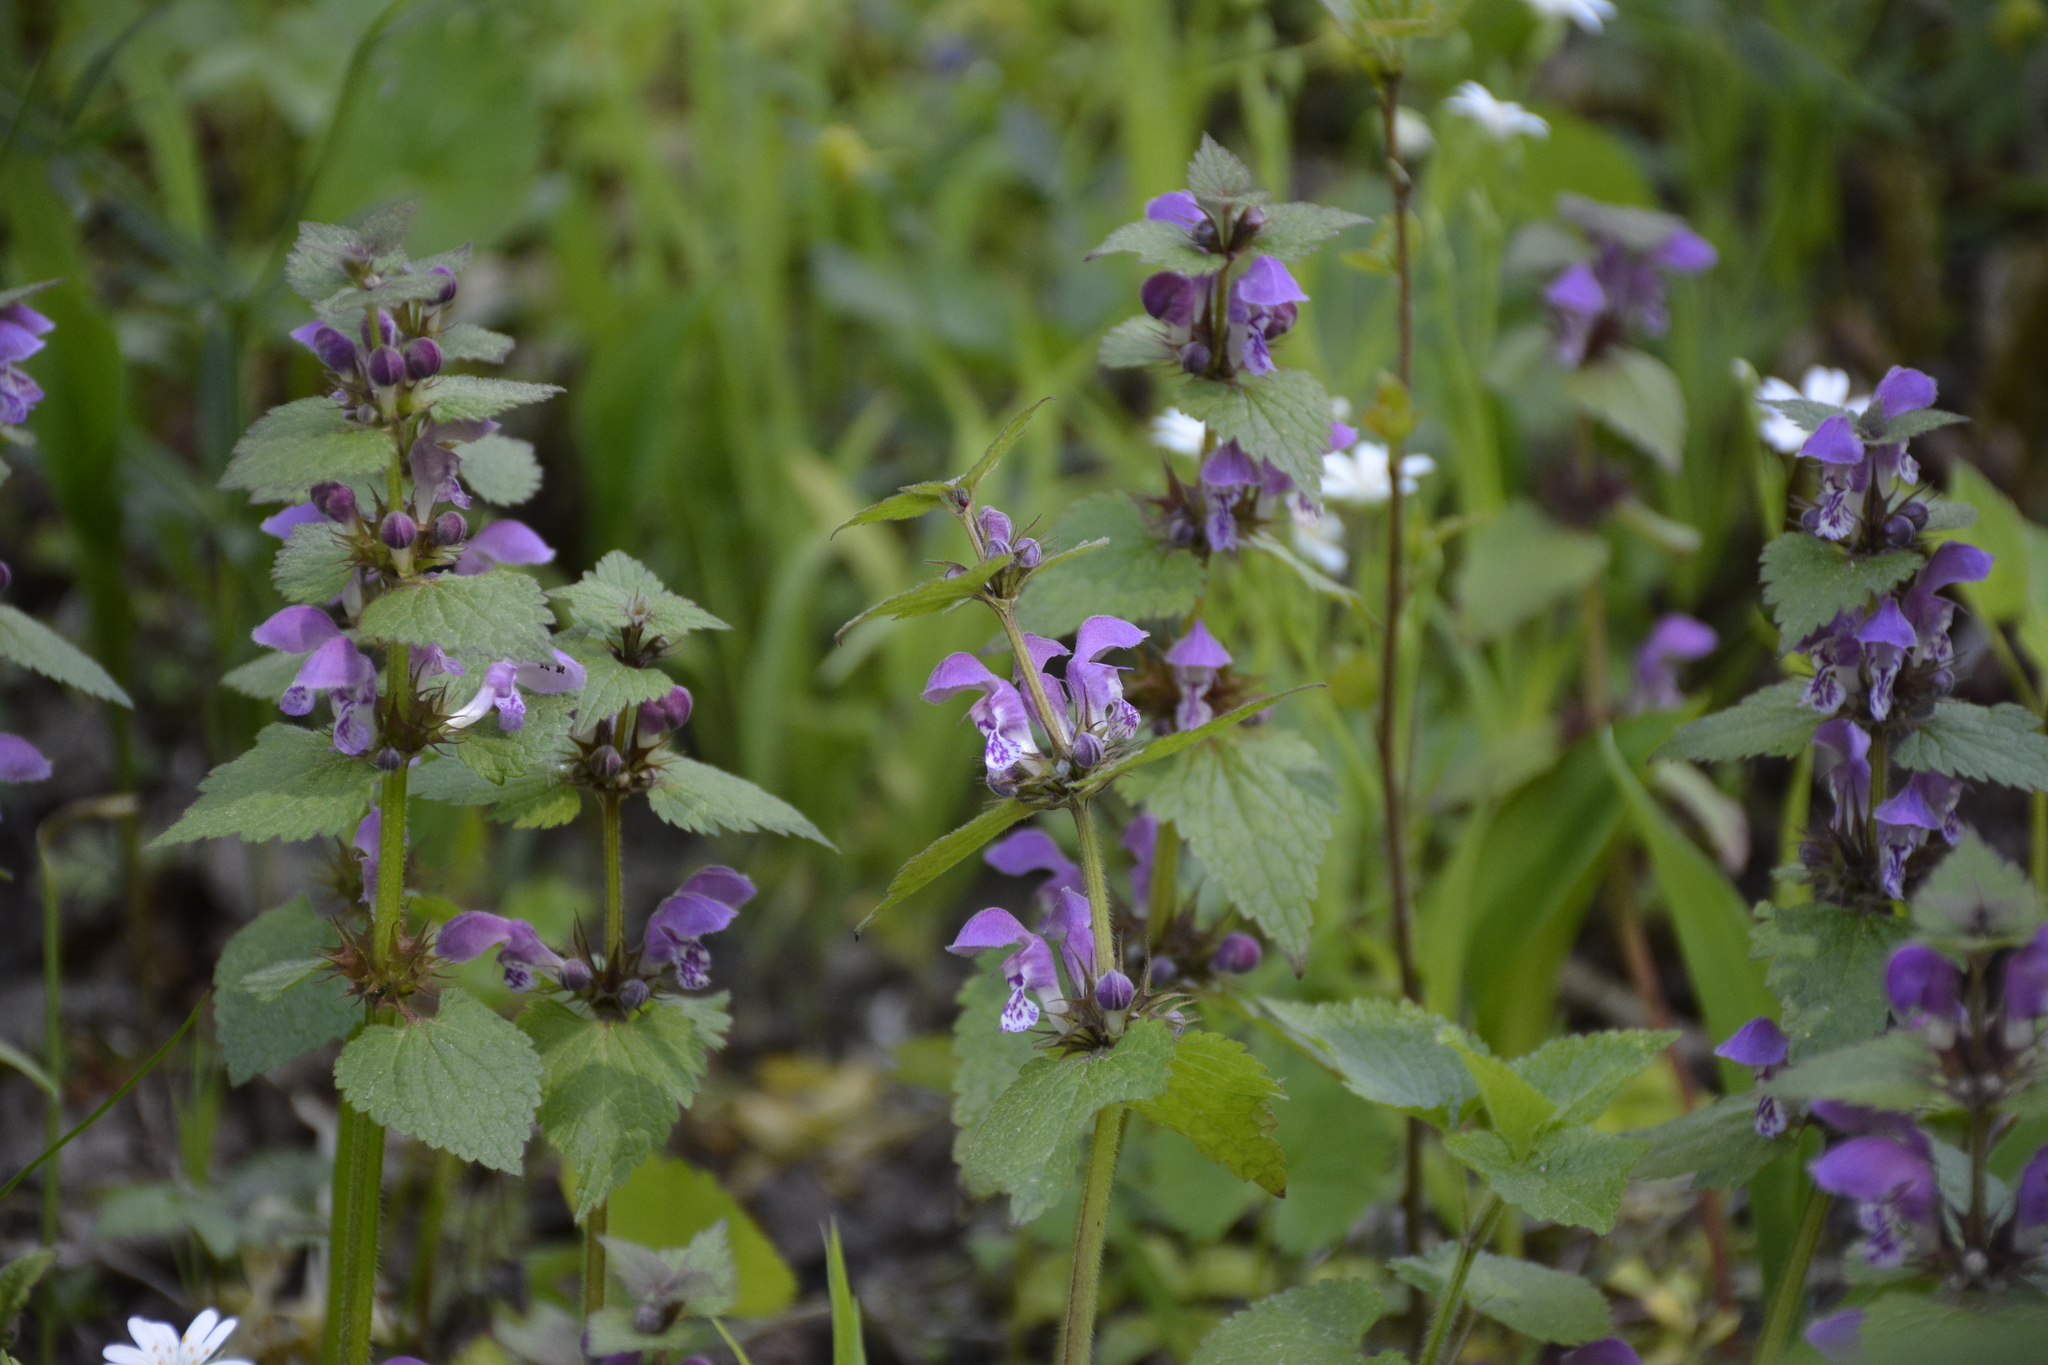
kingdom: Plantae
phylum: Tracheophyta
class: Magnoliopsida
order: Lamiales
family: Lamiaceae
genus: Lamium
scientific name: Lamium maculatum
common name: Spotted dead-nettle
